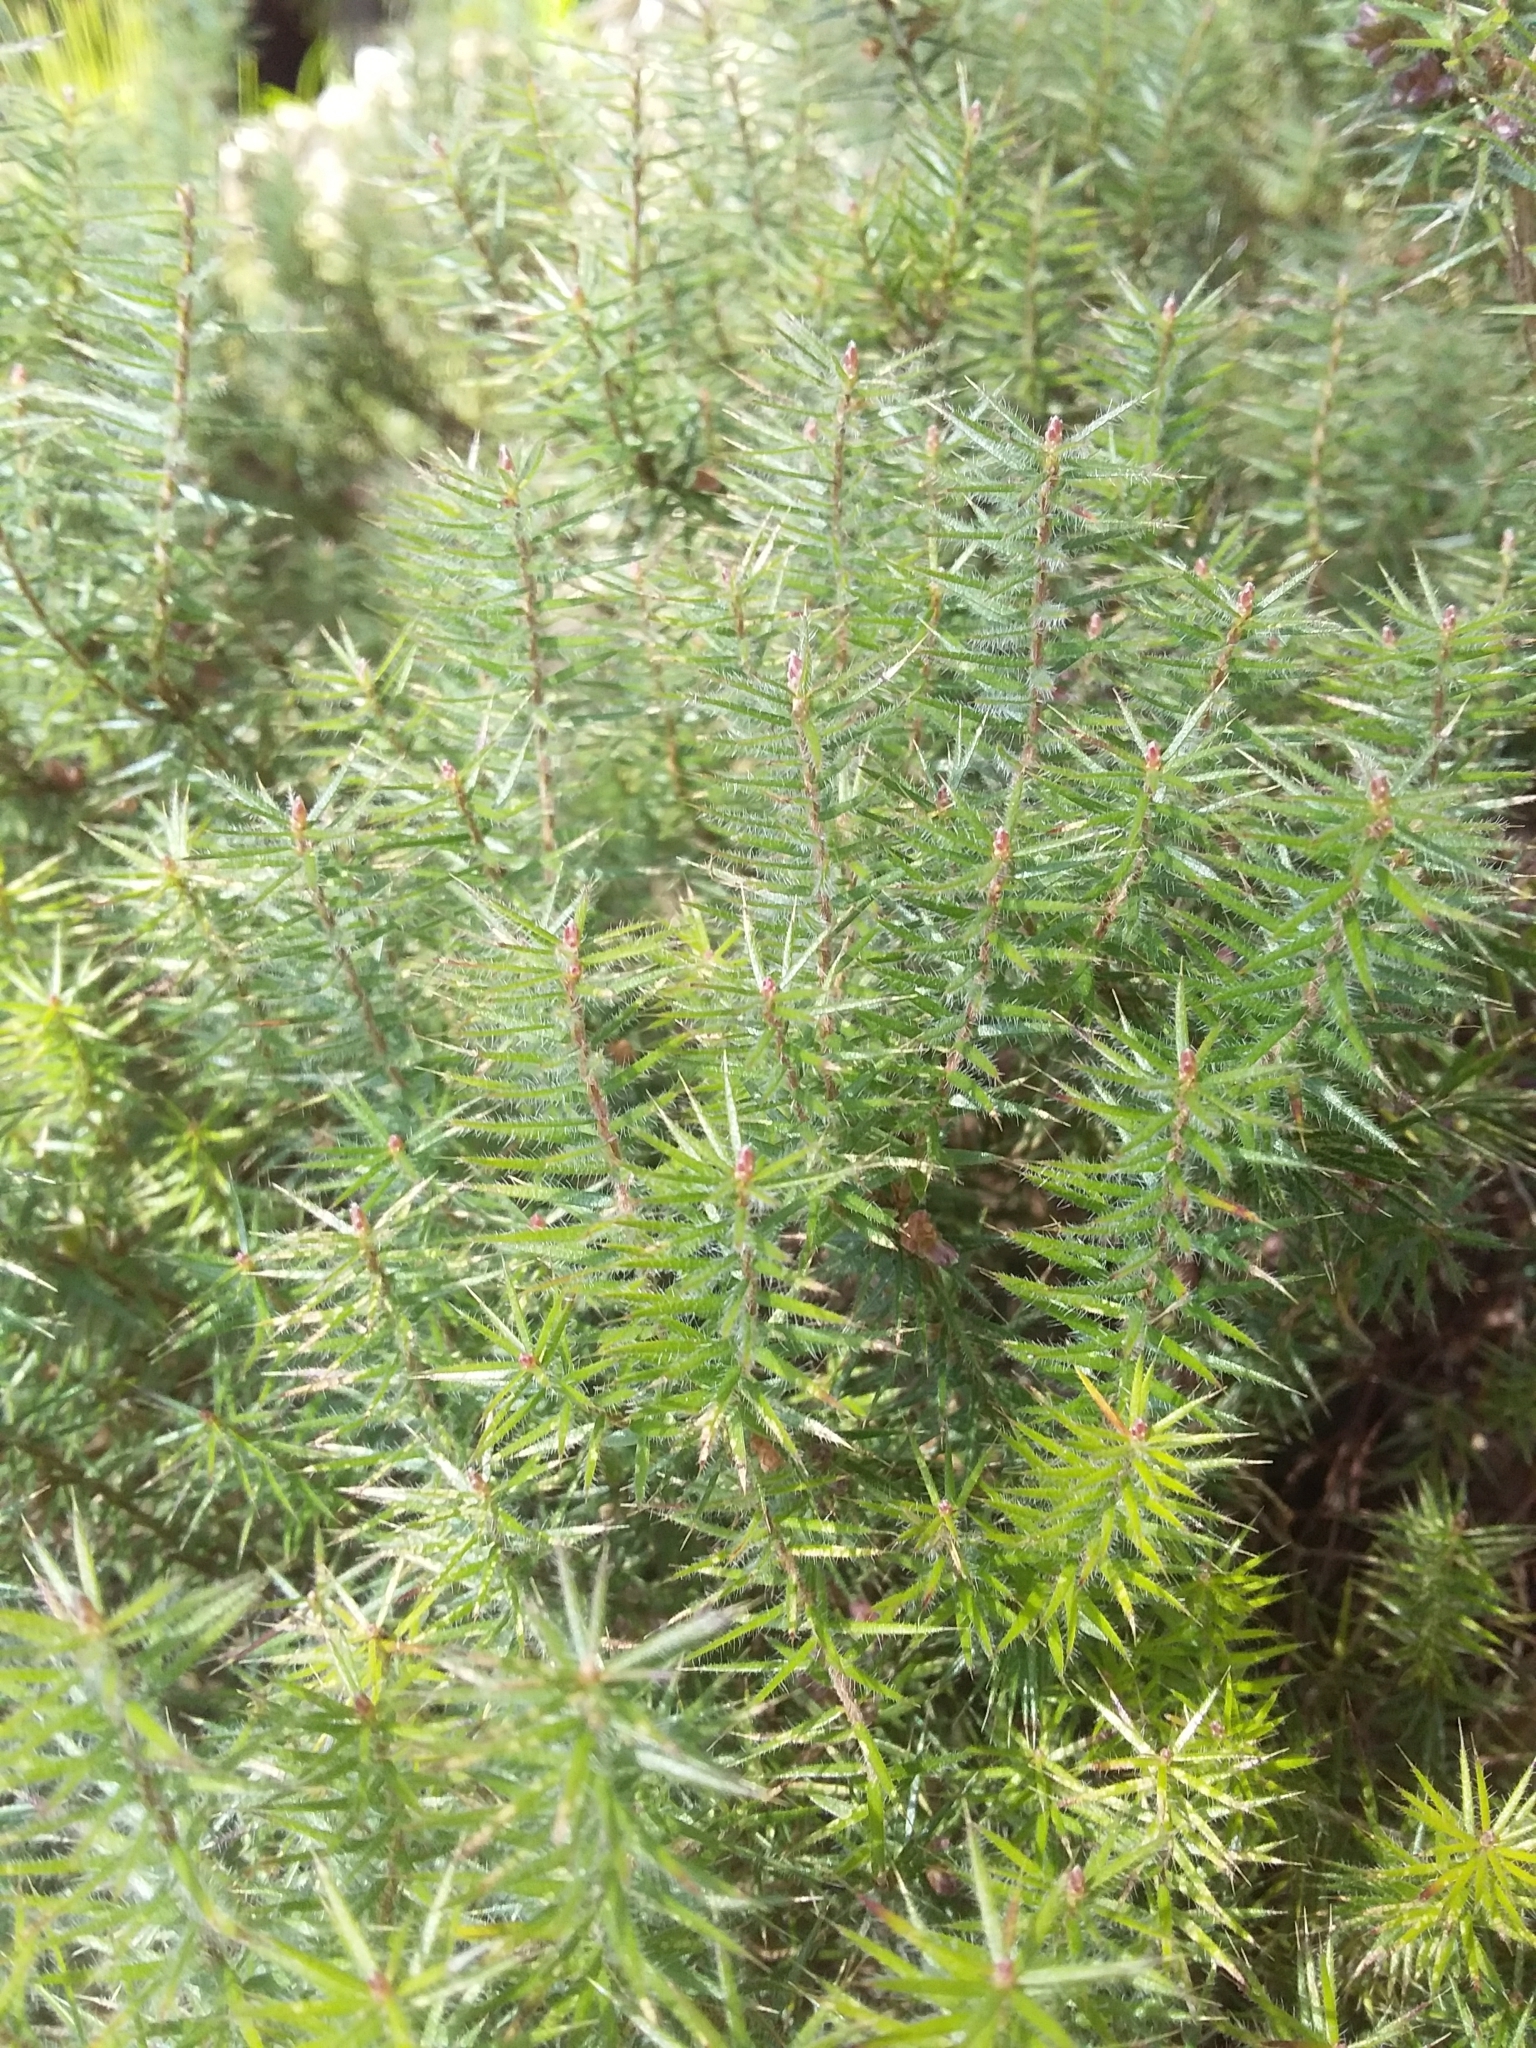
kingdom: Plantae
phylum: Tracheophyta
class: Magnoliopsida
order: Ericales
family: Ericaceae
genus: Acrotriche
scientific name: Acrotriche serrulata
